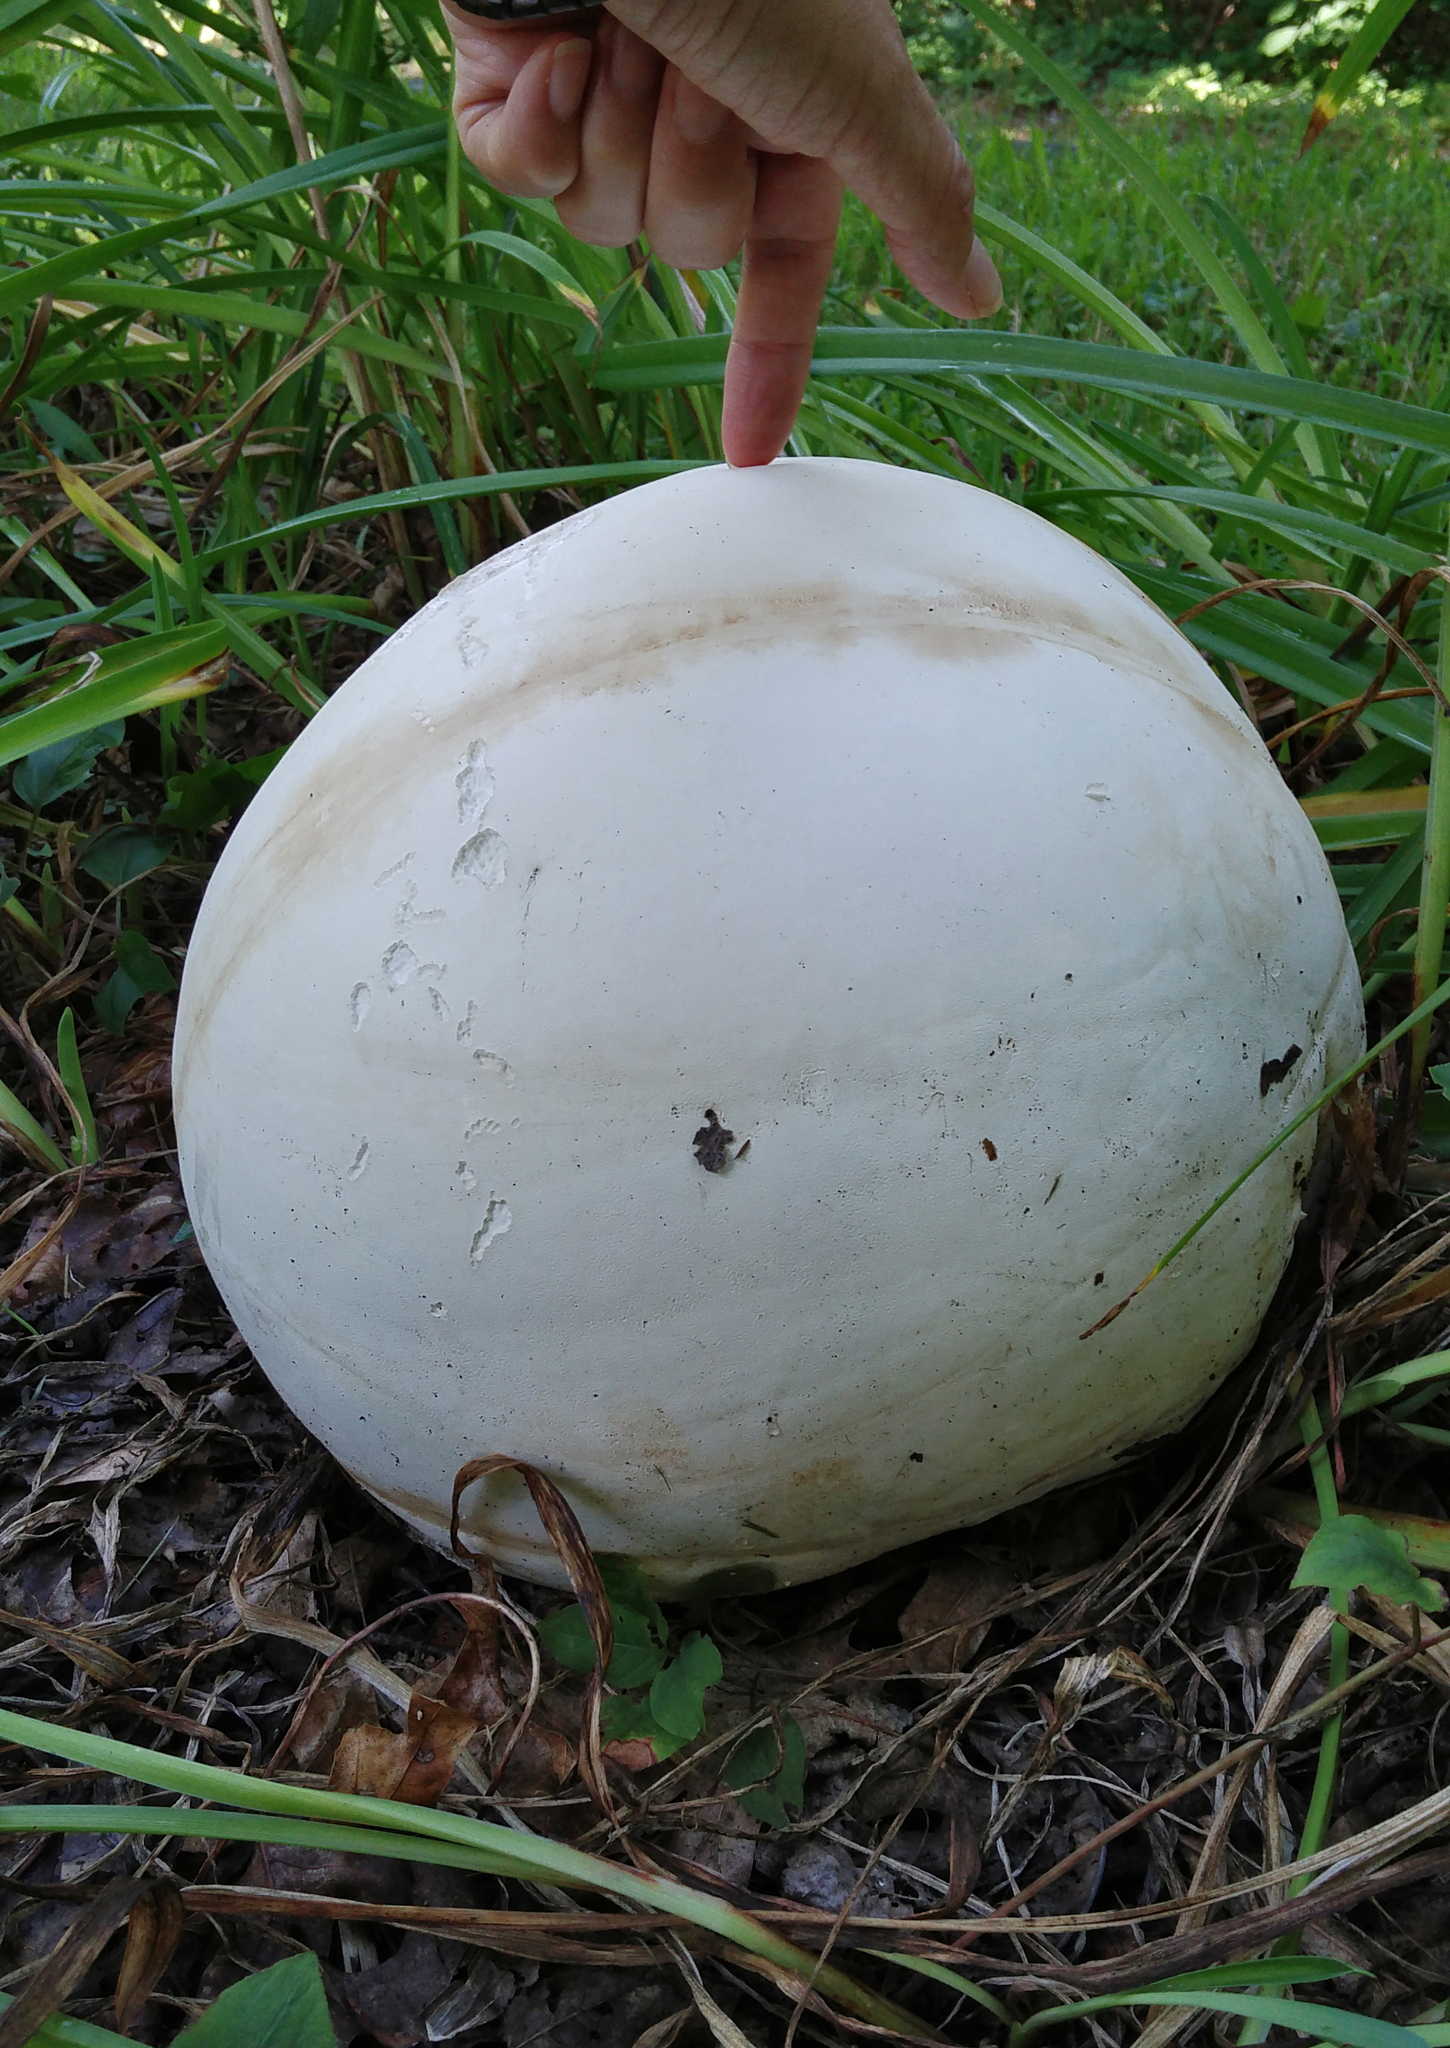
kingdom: Fungi
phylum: Basidiomycota
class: Agaricomycetes
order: Agaricales
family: Lycoperdaceae
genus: Calvatia
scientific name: Calvatia gigantea
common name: Giant puffball
